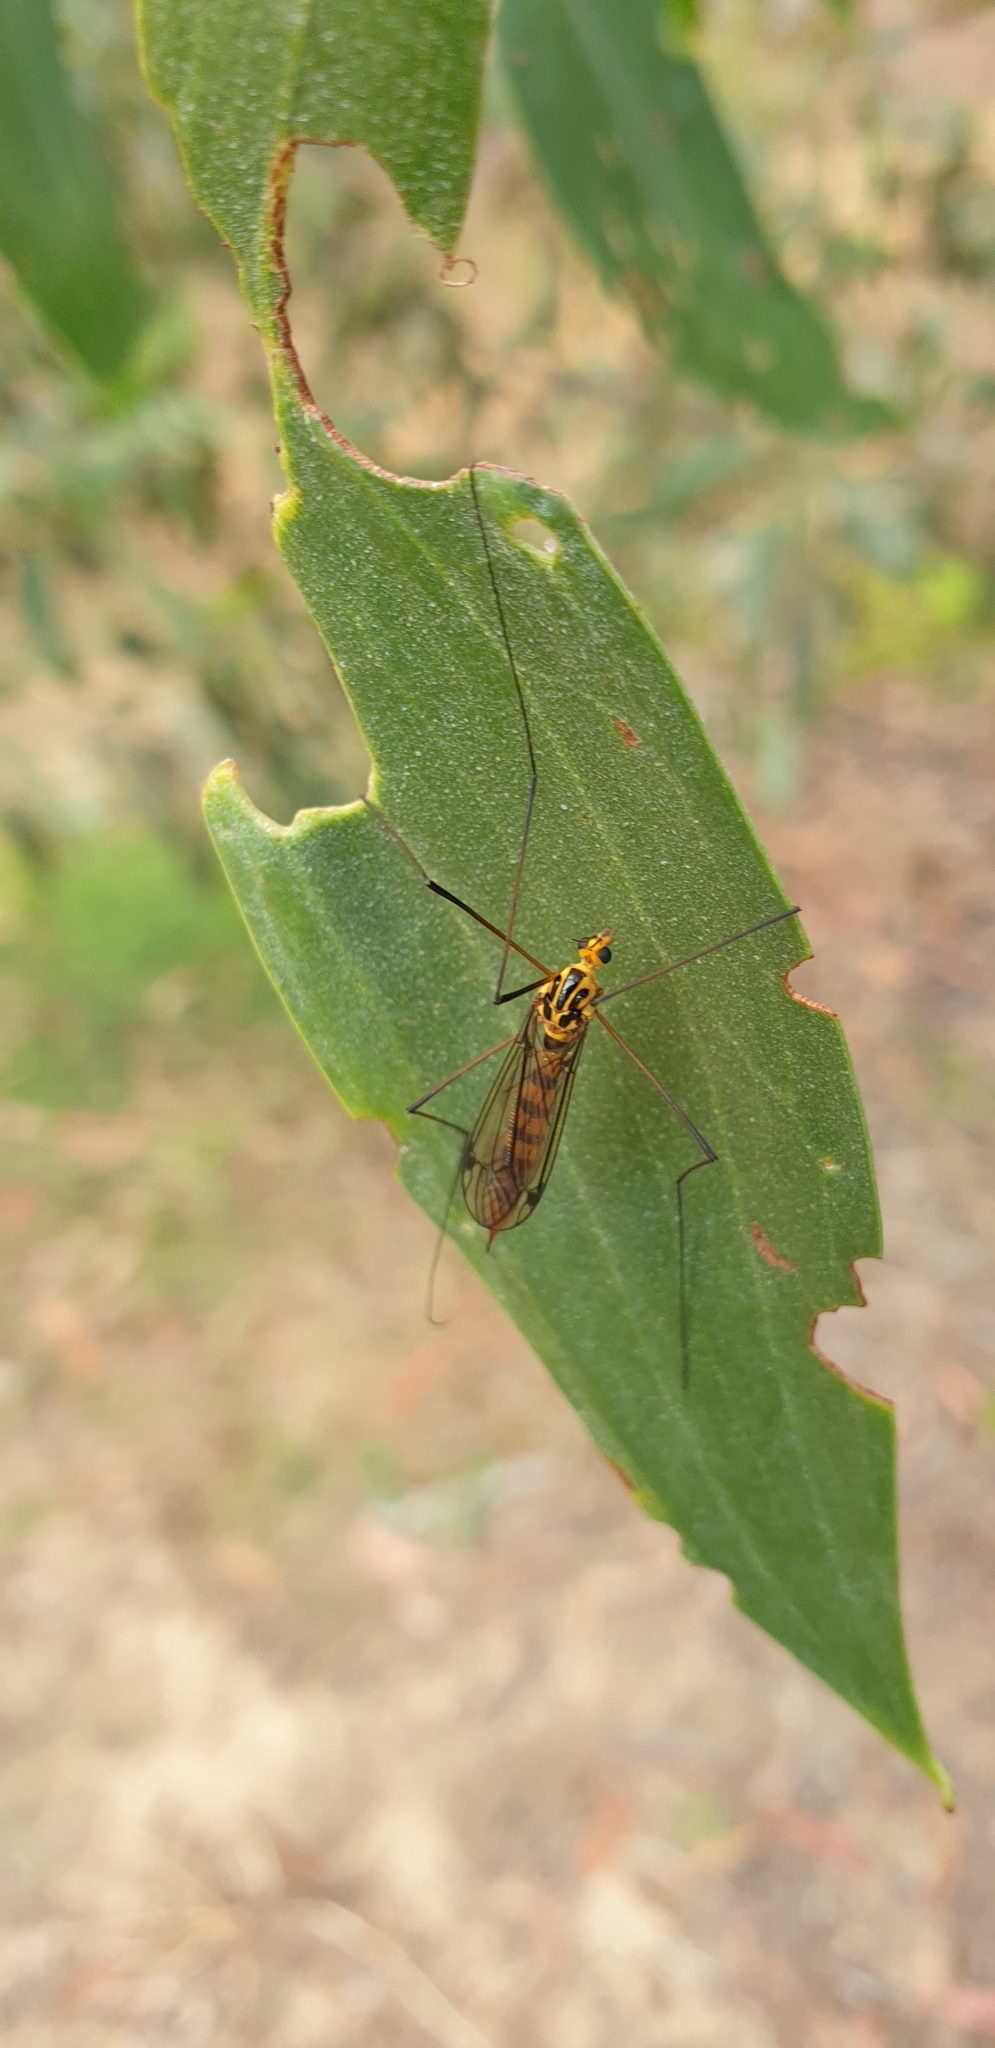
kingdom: Animalia
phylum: Arthropoda
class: Insecta
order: Diptera
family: Tipulidae
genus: Nephrotoma
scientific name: Nephrotoma australasiae
